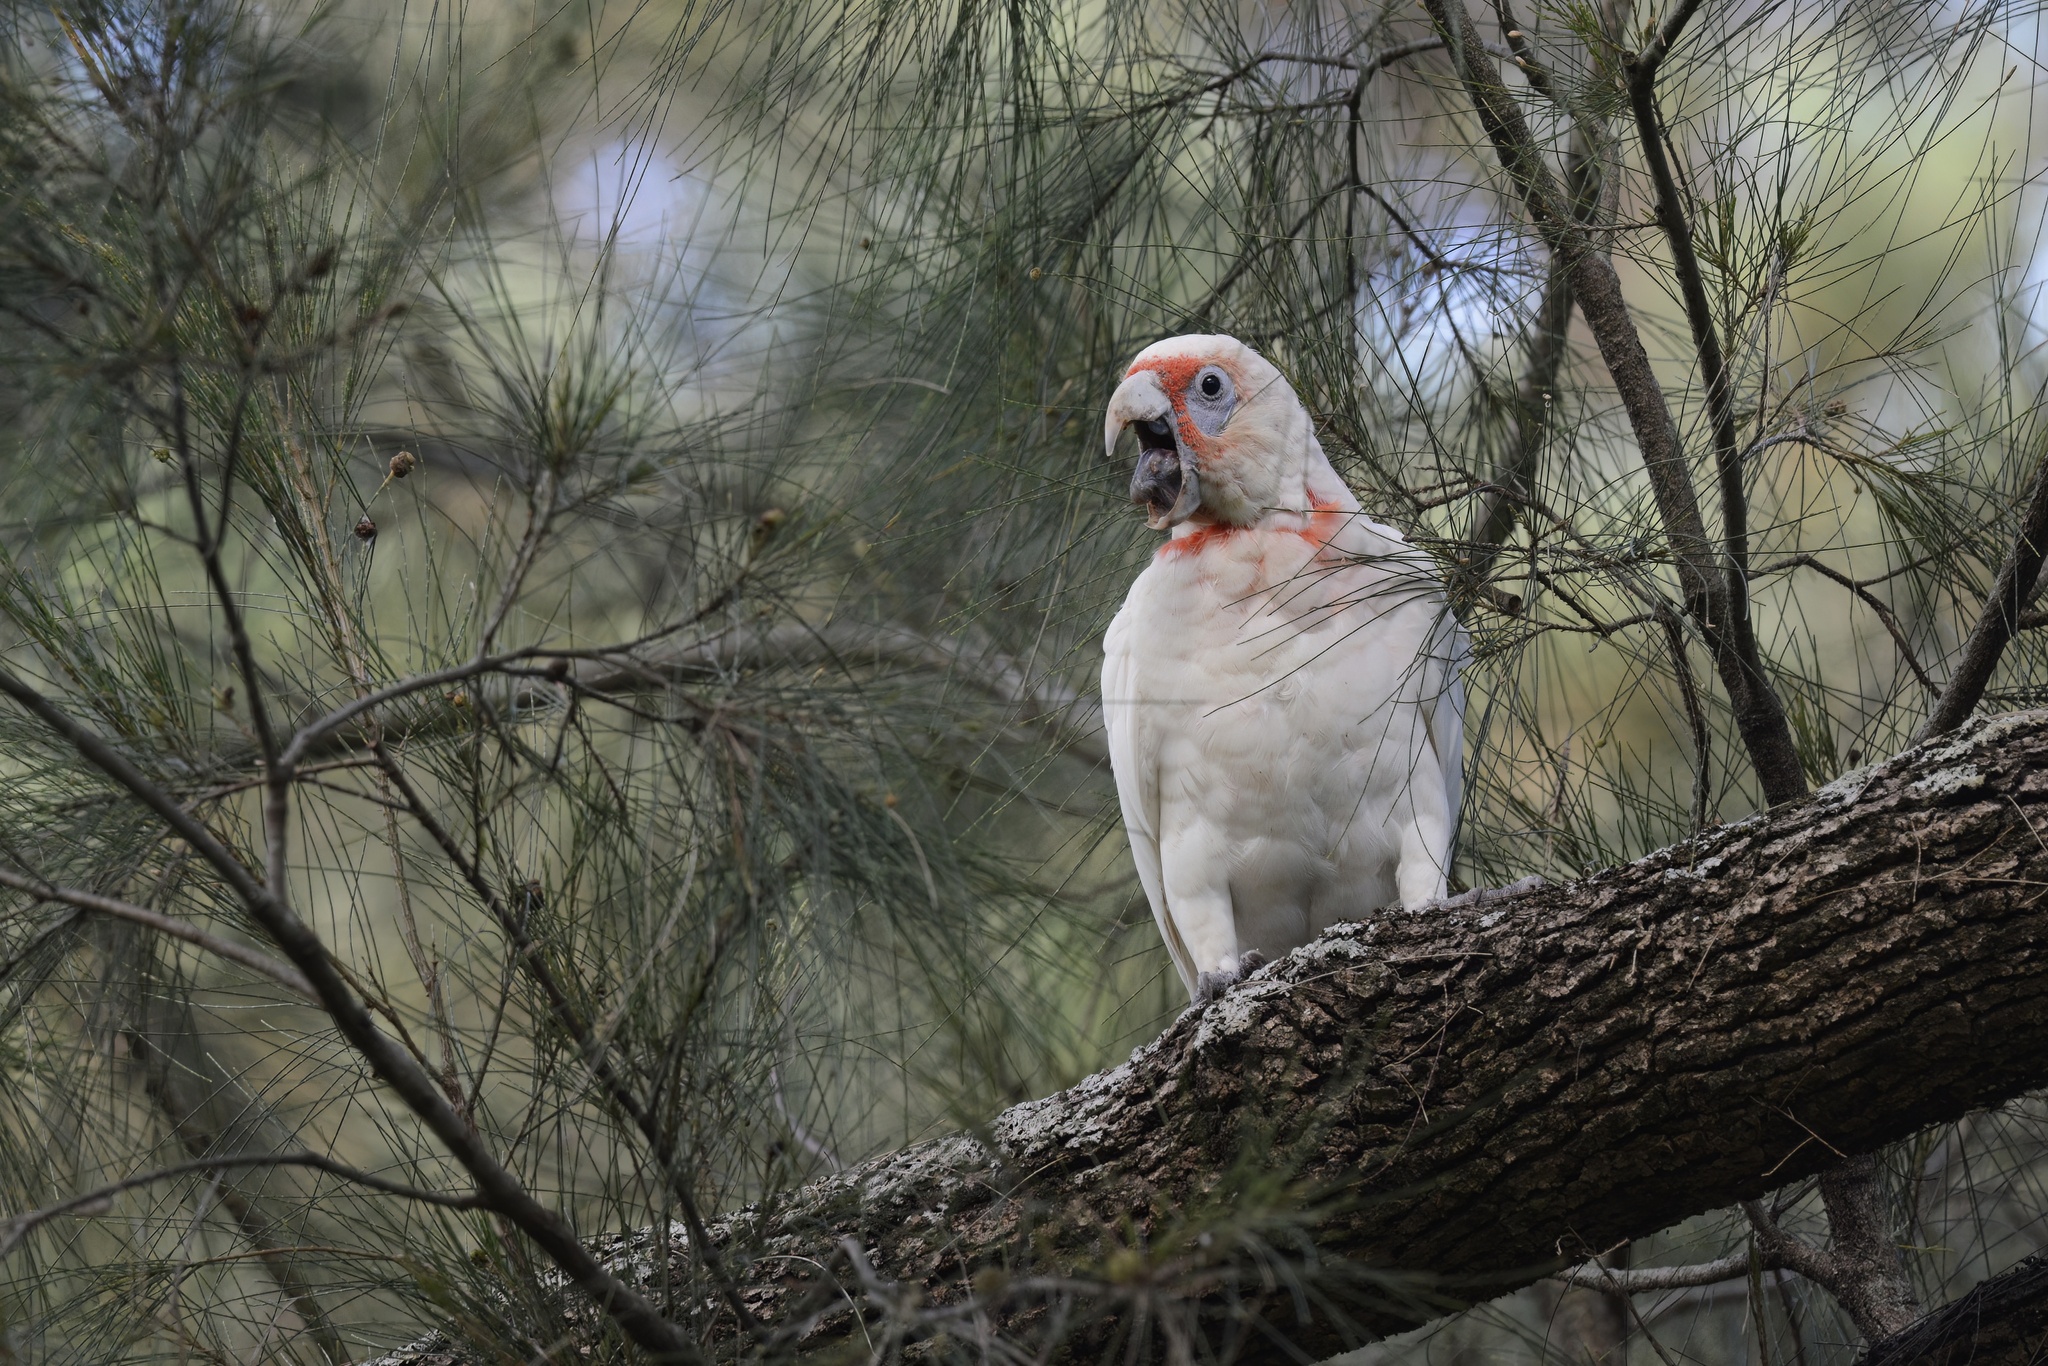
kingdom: Animalia
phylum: Chordata
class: Aves
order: Psittaciformes
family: Psittacidae
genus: Cacatua
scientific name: Cacatua tenuirostris
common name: Long-billed corella
